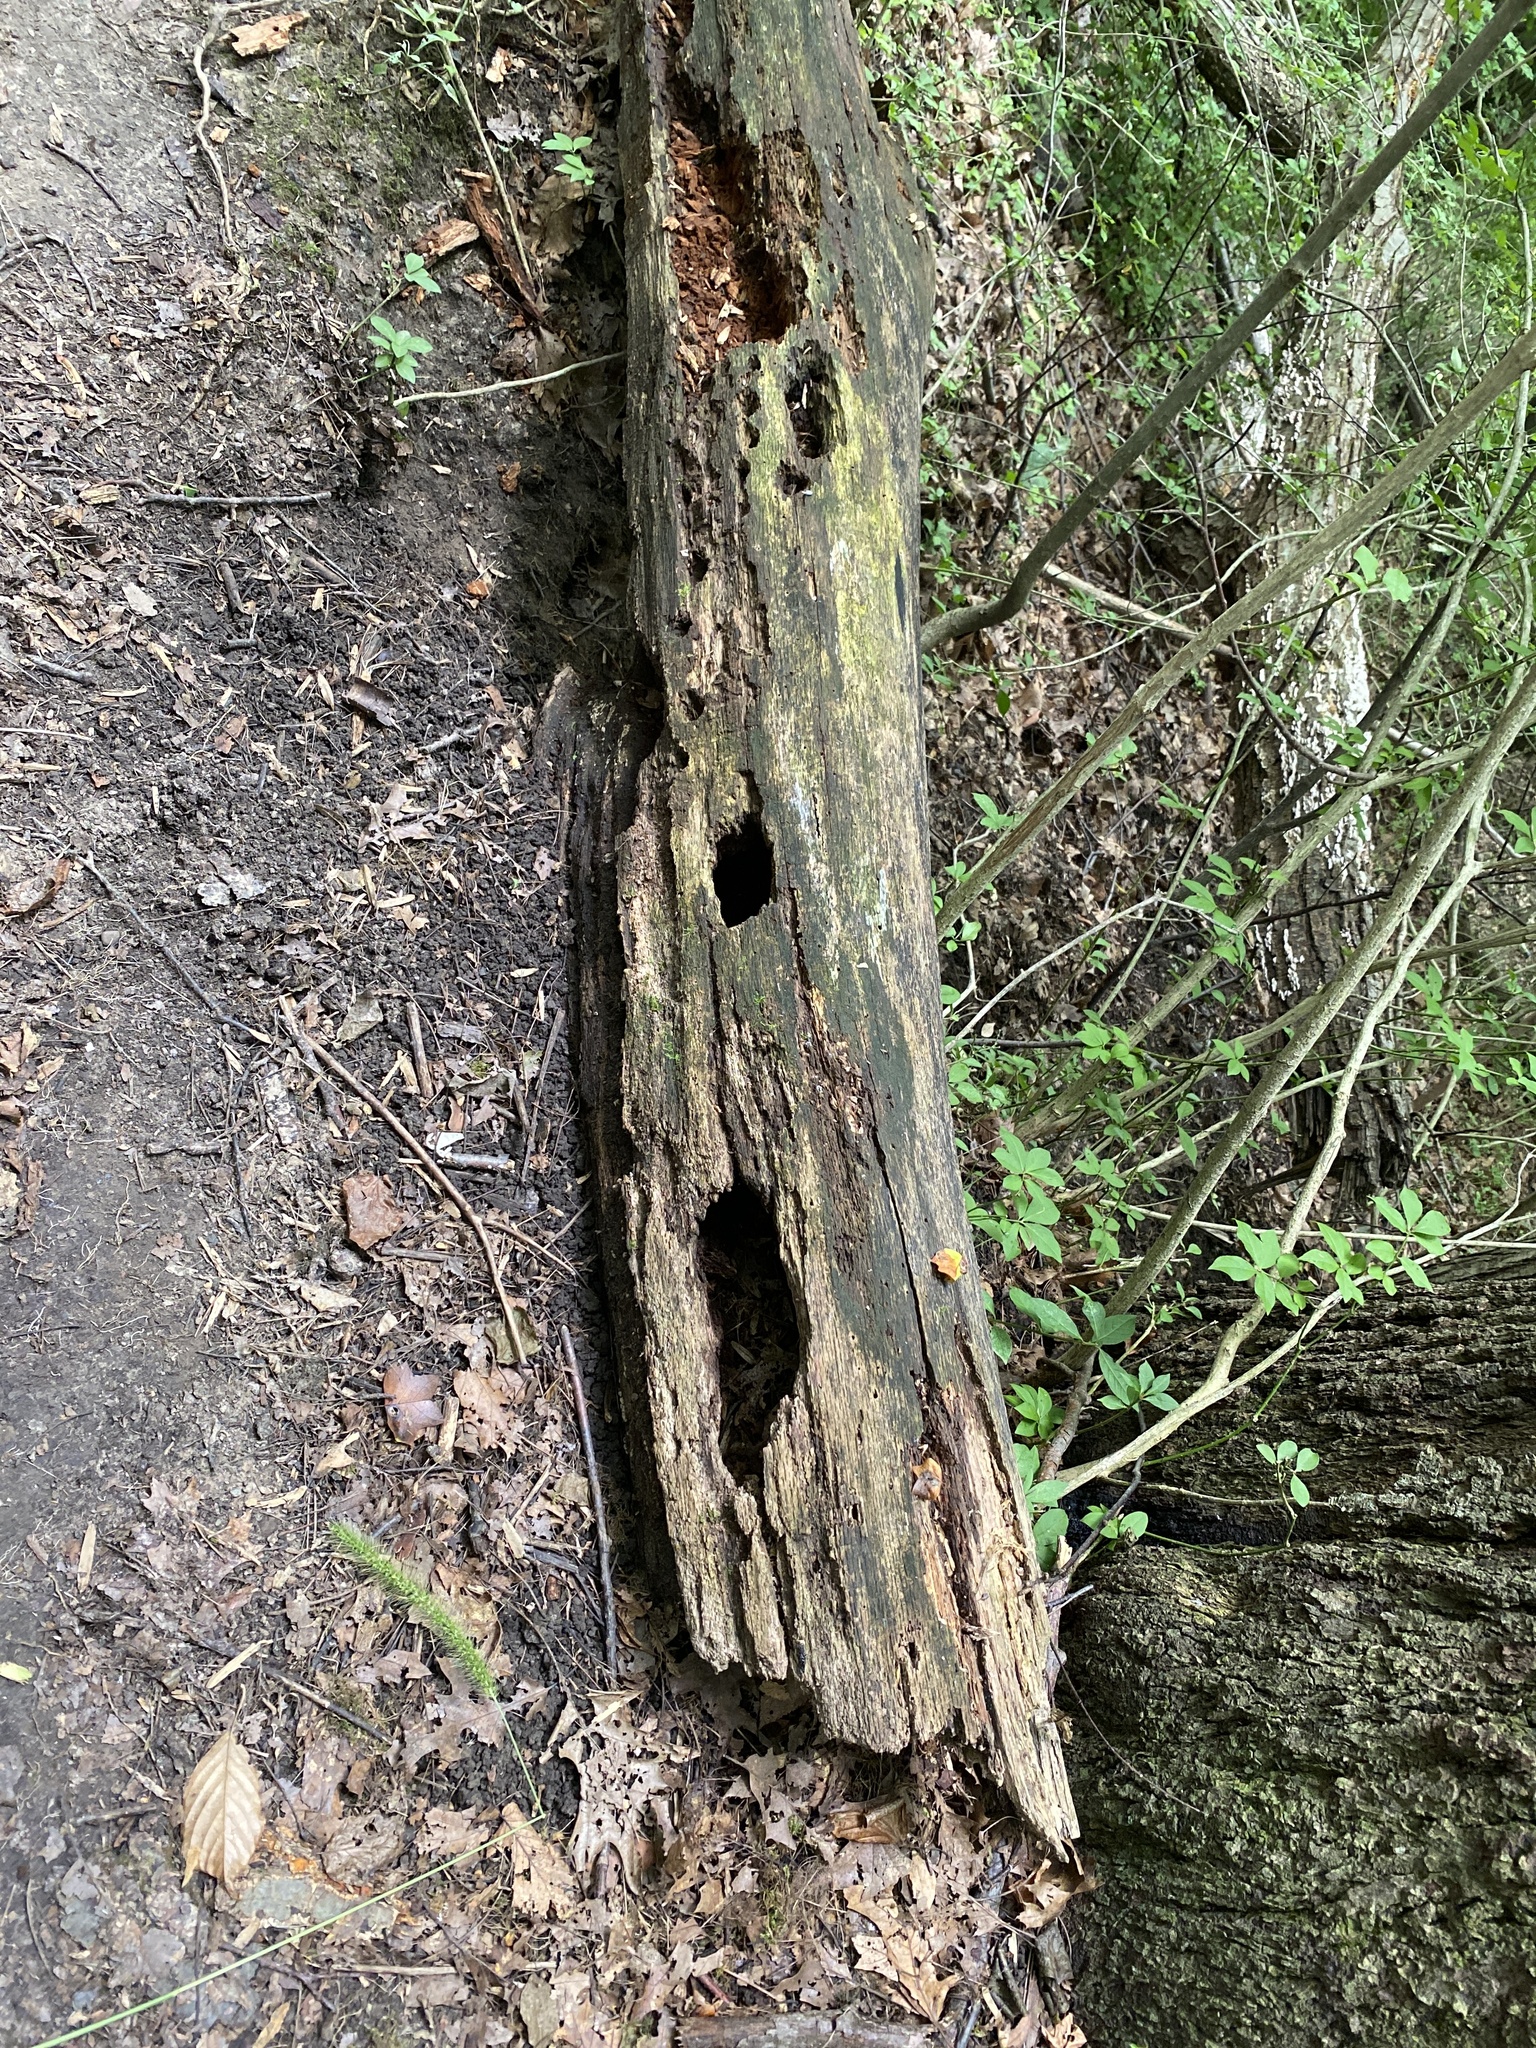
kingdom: Animalia
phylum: Chordata
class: Aves
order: Piciformes
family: Picidae
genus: Dryocopus
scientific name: Dryocopus pileatus
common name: Pileated woodpecker
